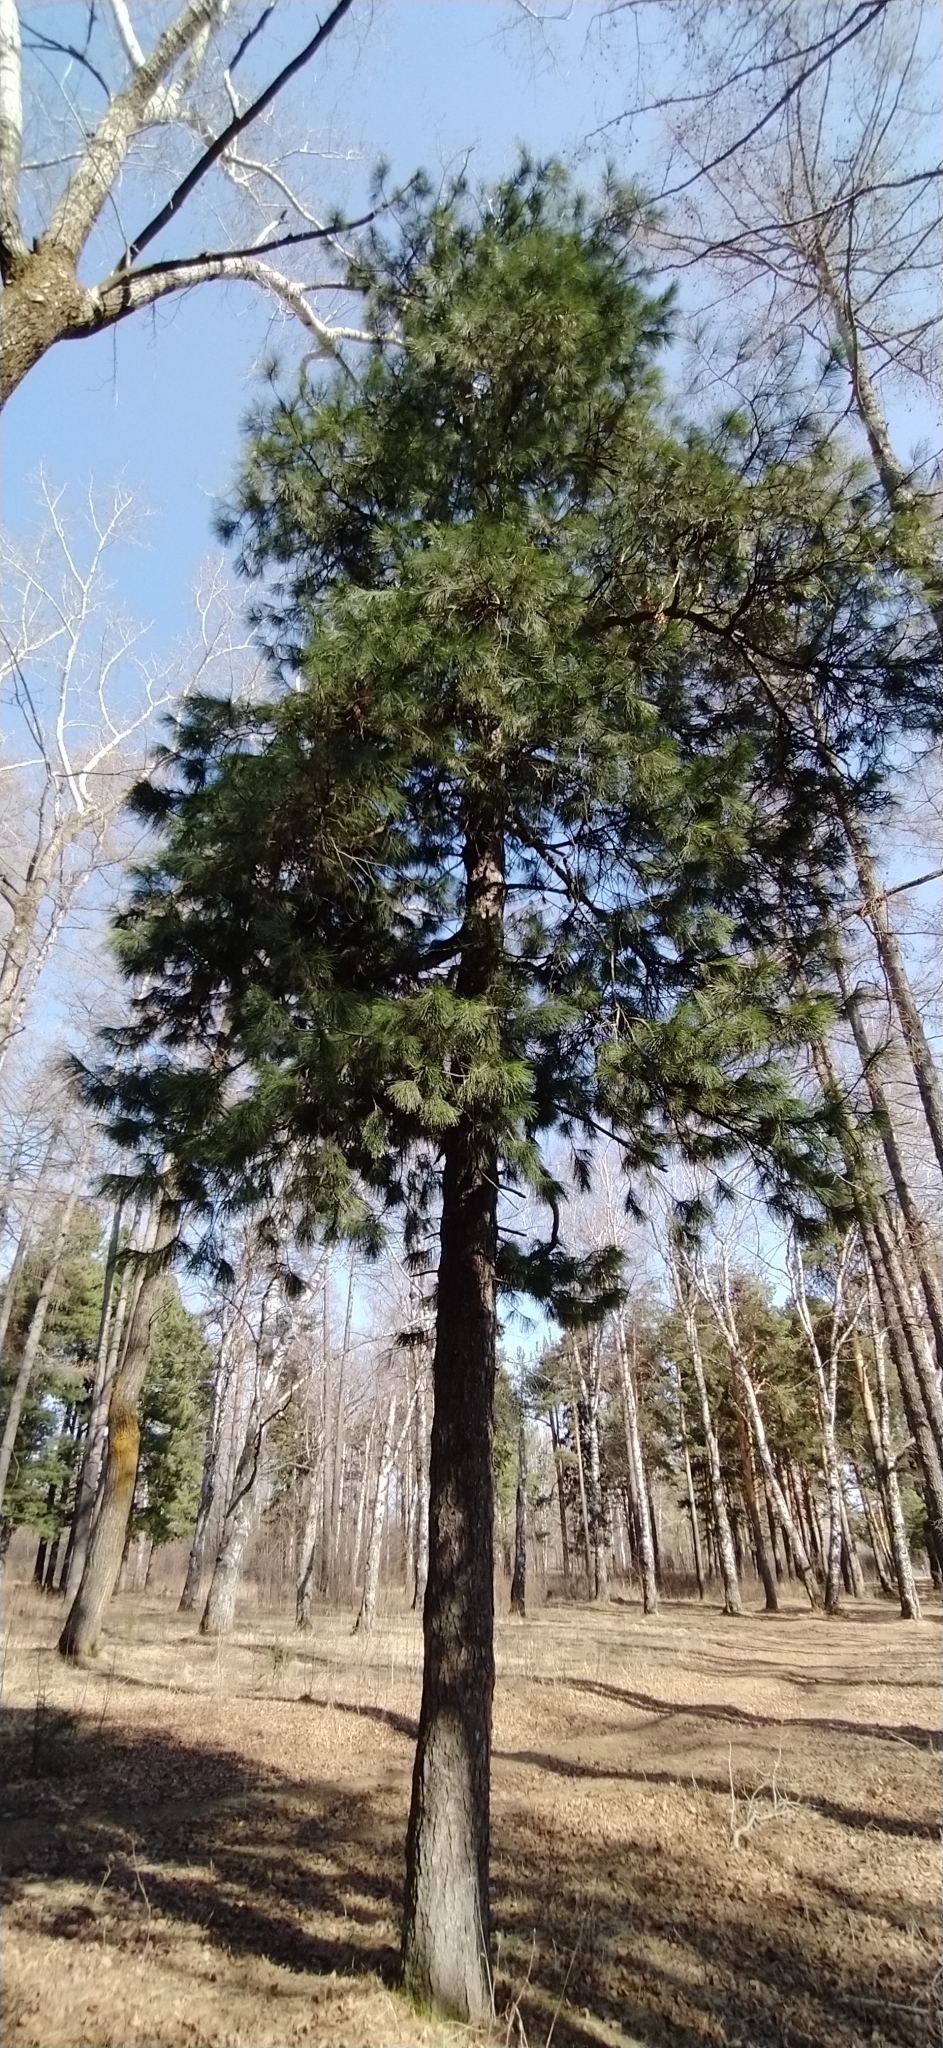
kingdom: Plantae
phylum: Tracheophyta
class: Pinopsida
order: Pinales
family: Pinaceae
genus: Pinus
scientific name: Pinus sibirica
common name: Siberian pine
